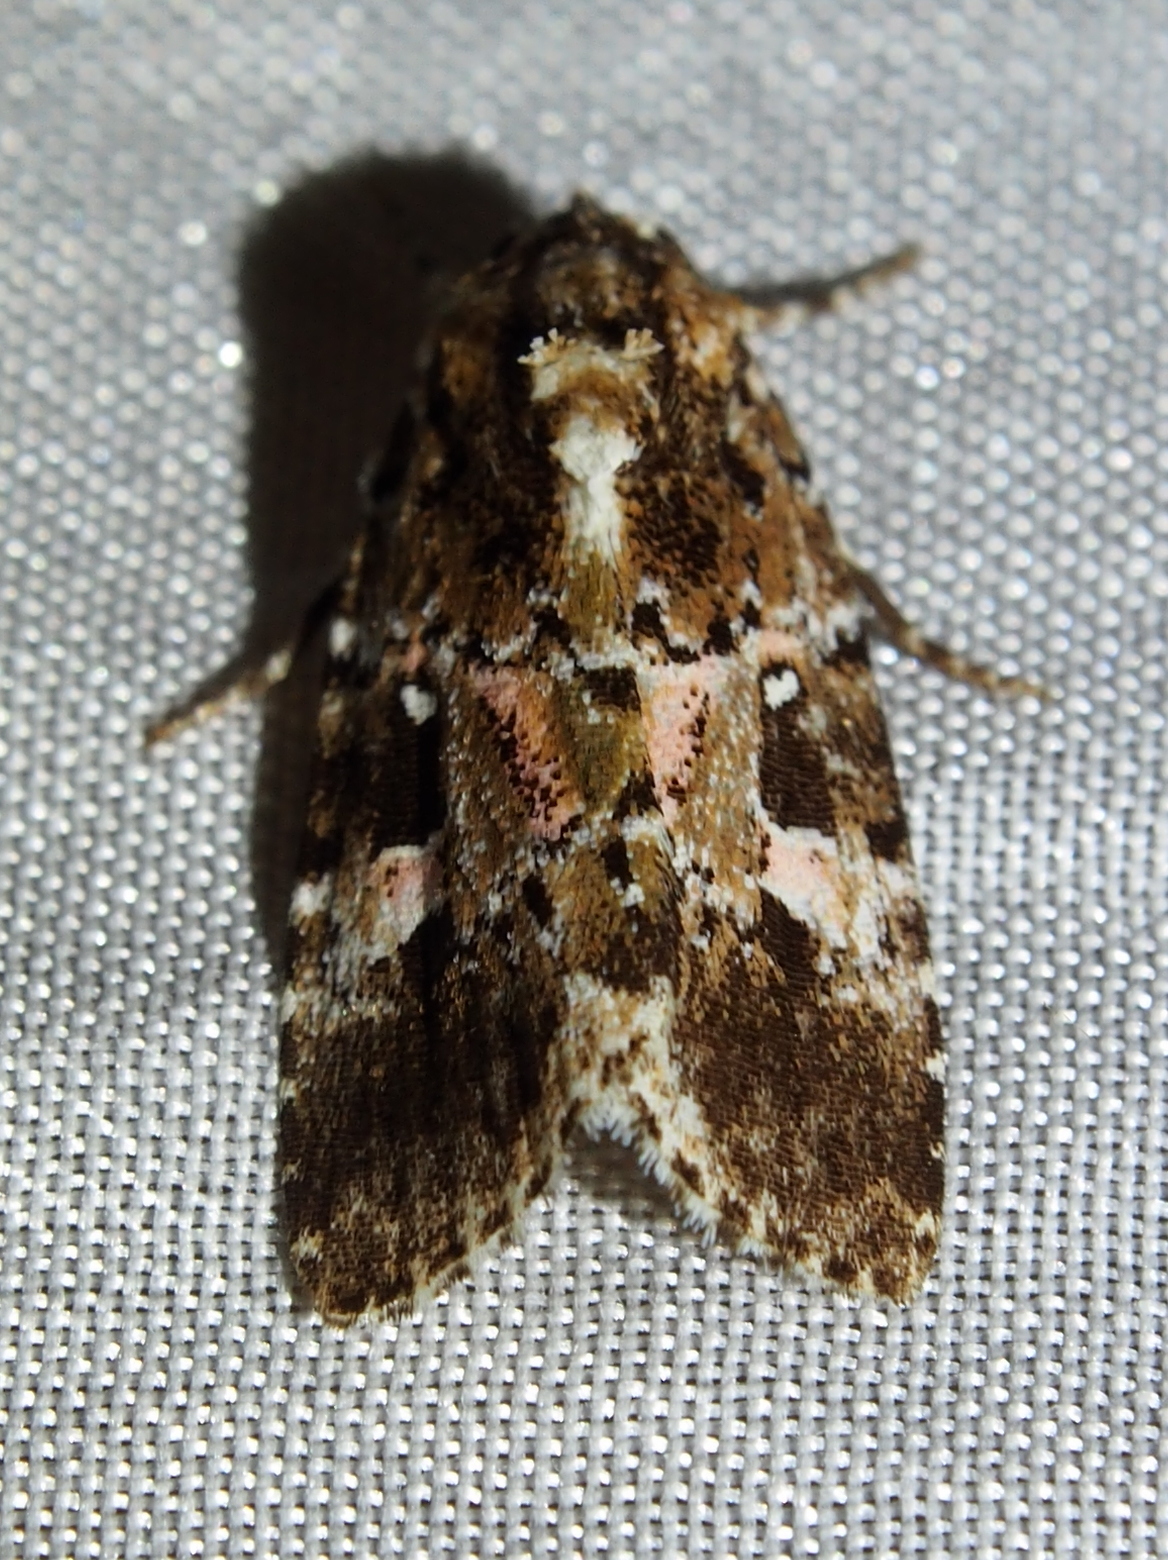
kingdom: Animalia
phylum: Arthropoda
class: Insecta
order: Lepidoptera
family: Noctuidae
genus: Elaphria
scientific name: Elaphria pulchra
